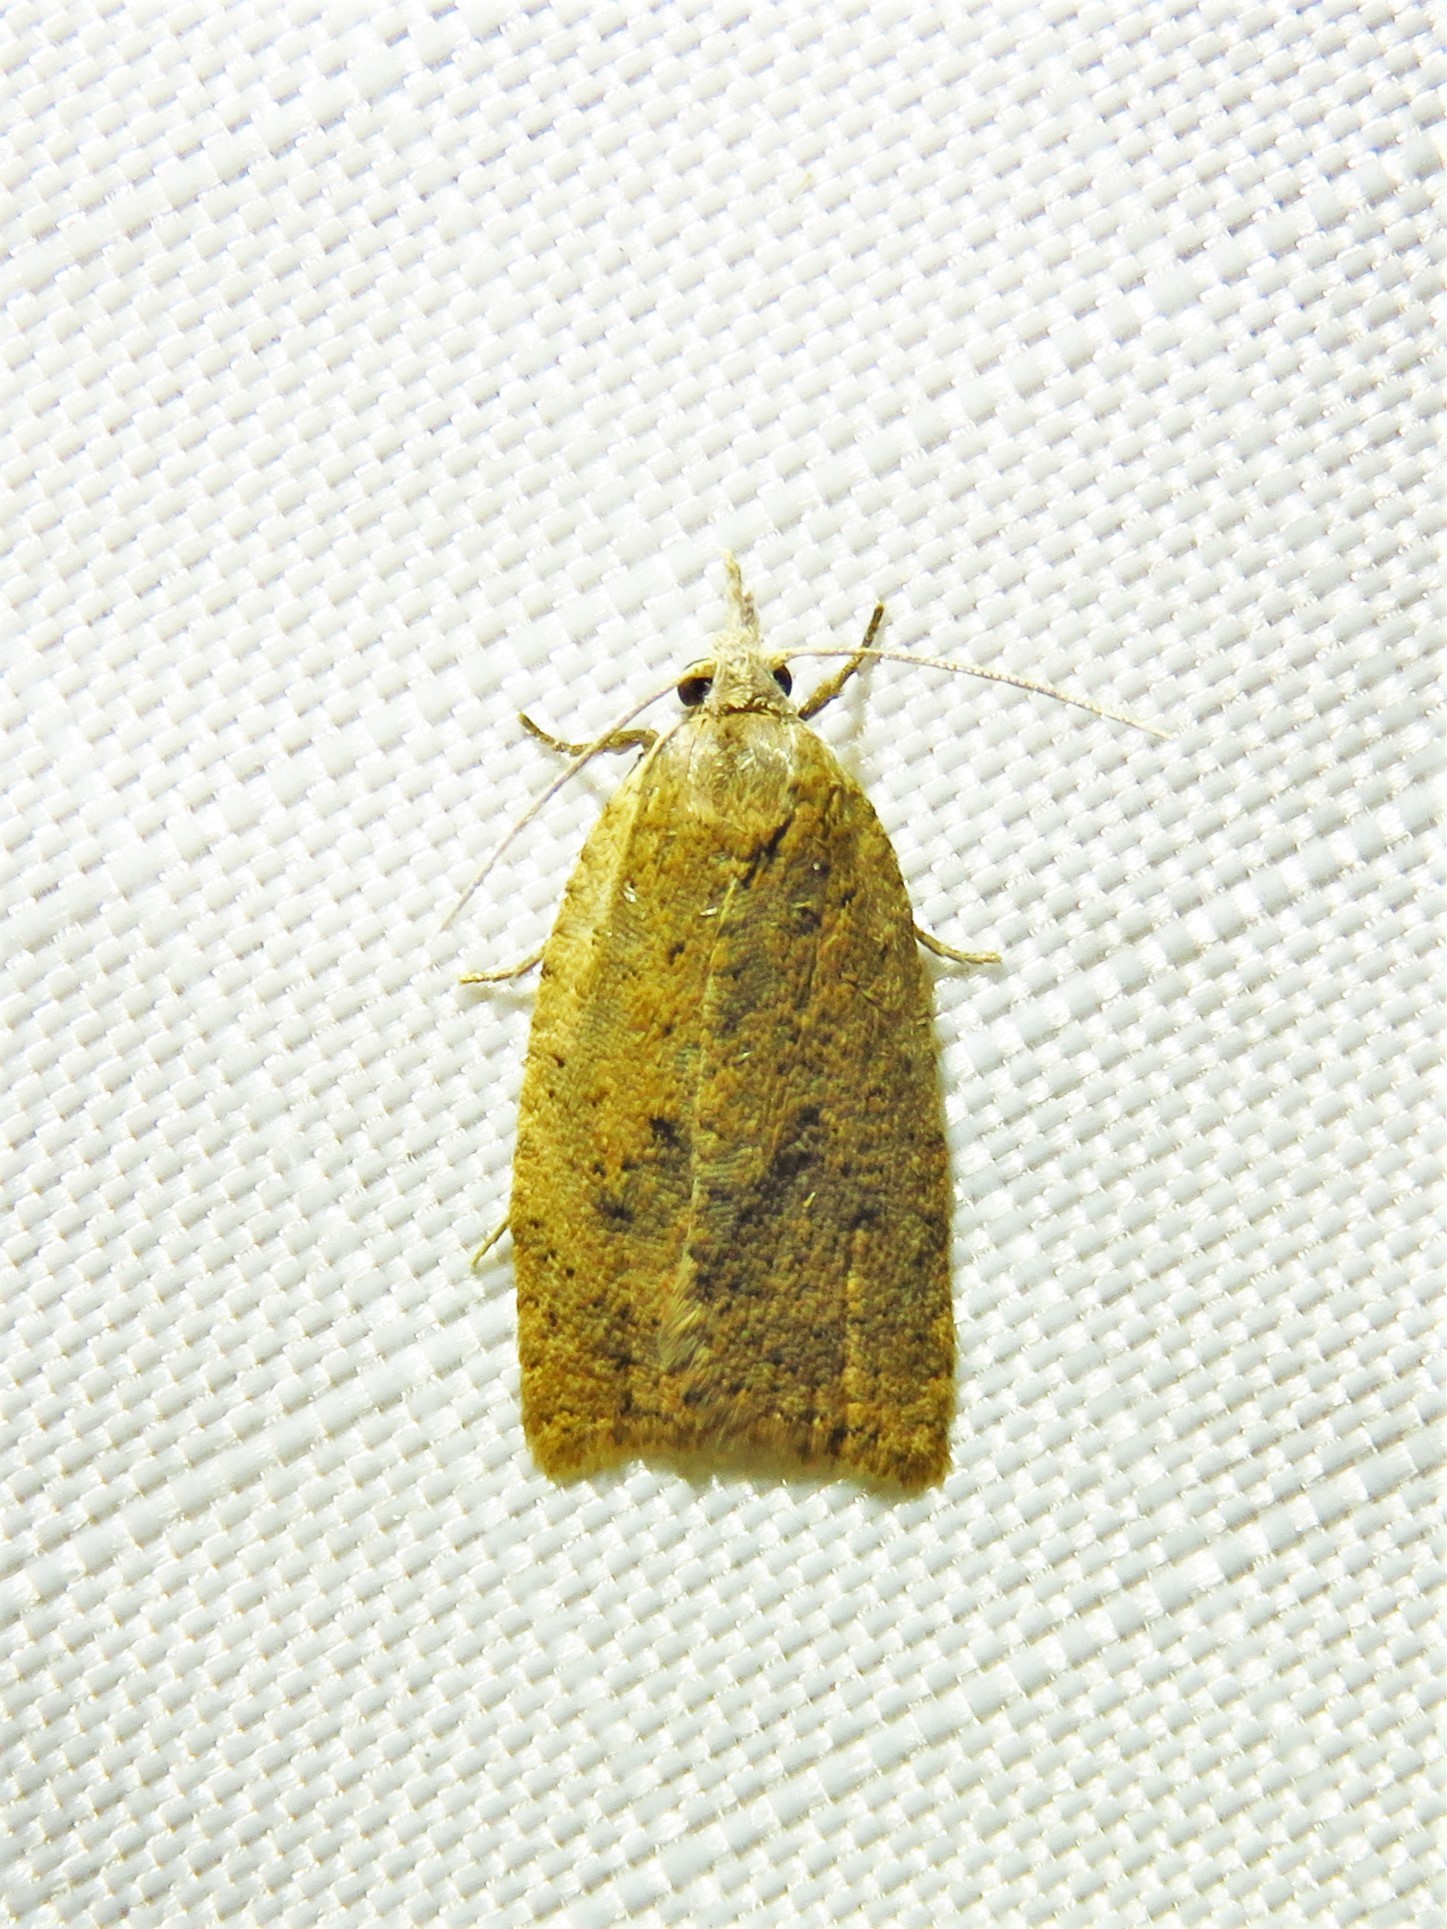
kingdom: Animalia
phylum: Arthropoda
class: Insecta
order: Lepidoptera
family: Tortricidae
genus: Sparganothoides
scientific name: Sparganothoides lentiginosana
